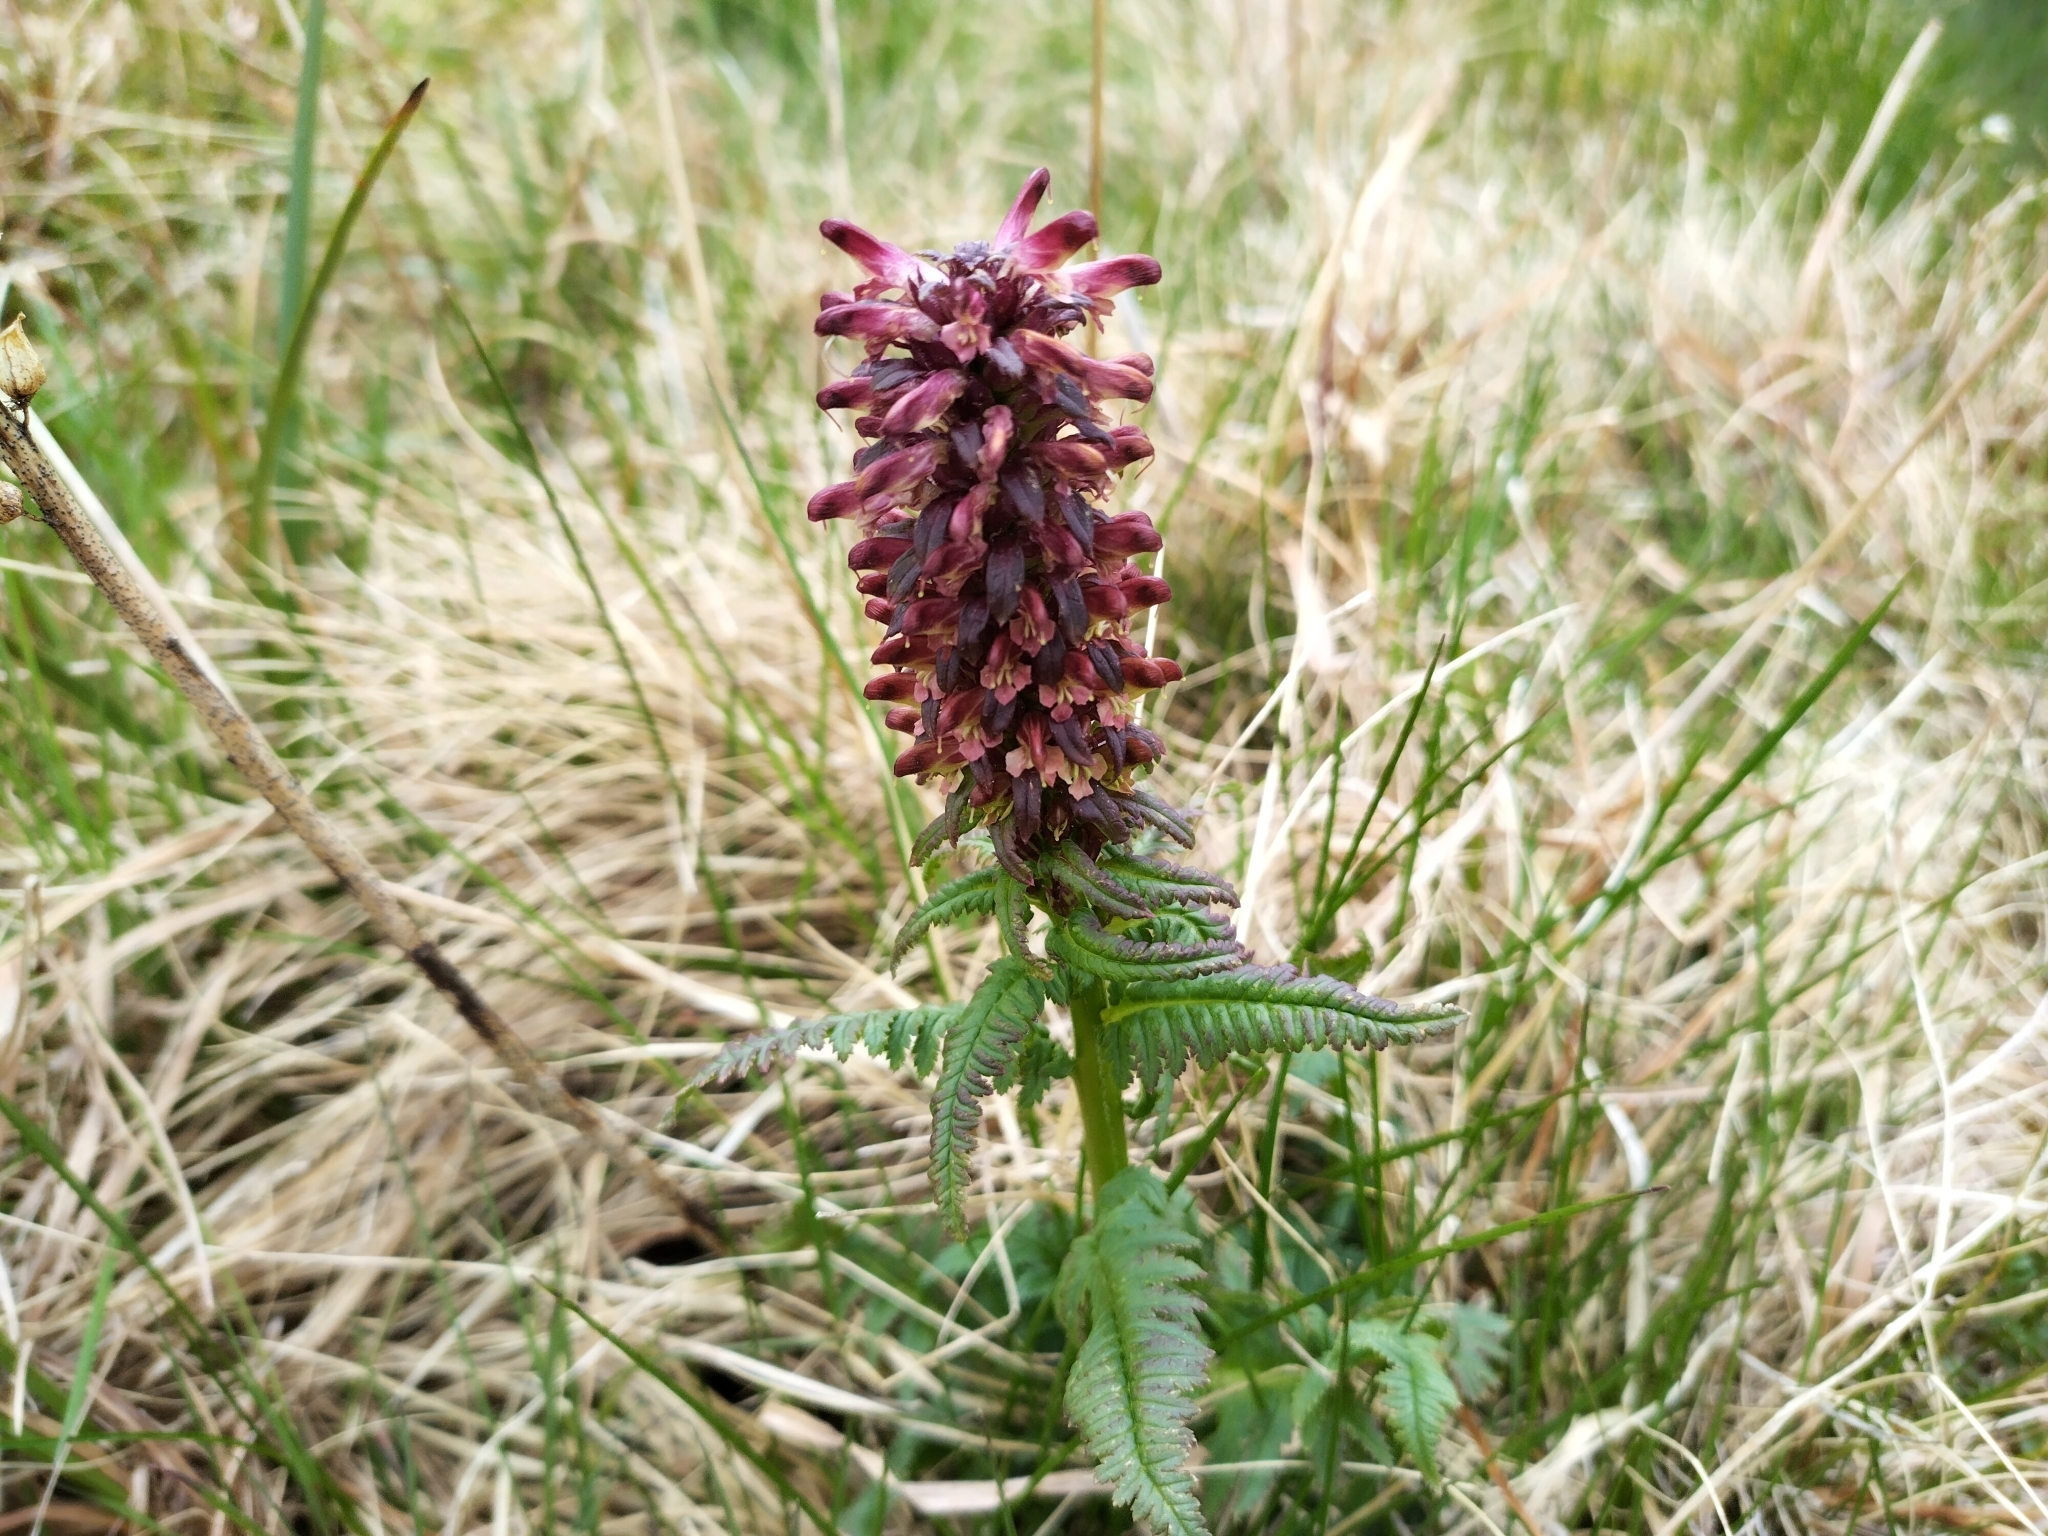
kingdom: Plantae
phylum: Tracheophyta
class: Magnoliopsida
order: Lamiales
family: Orobanchaceae
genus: Pedicularis
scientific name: Pedicularis recutita
